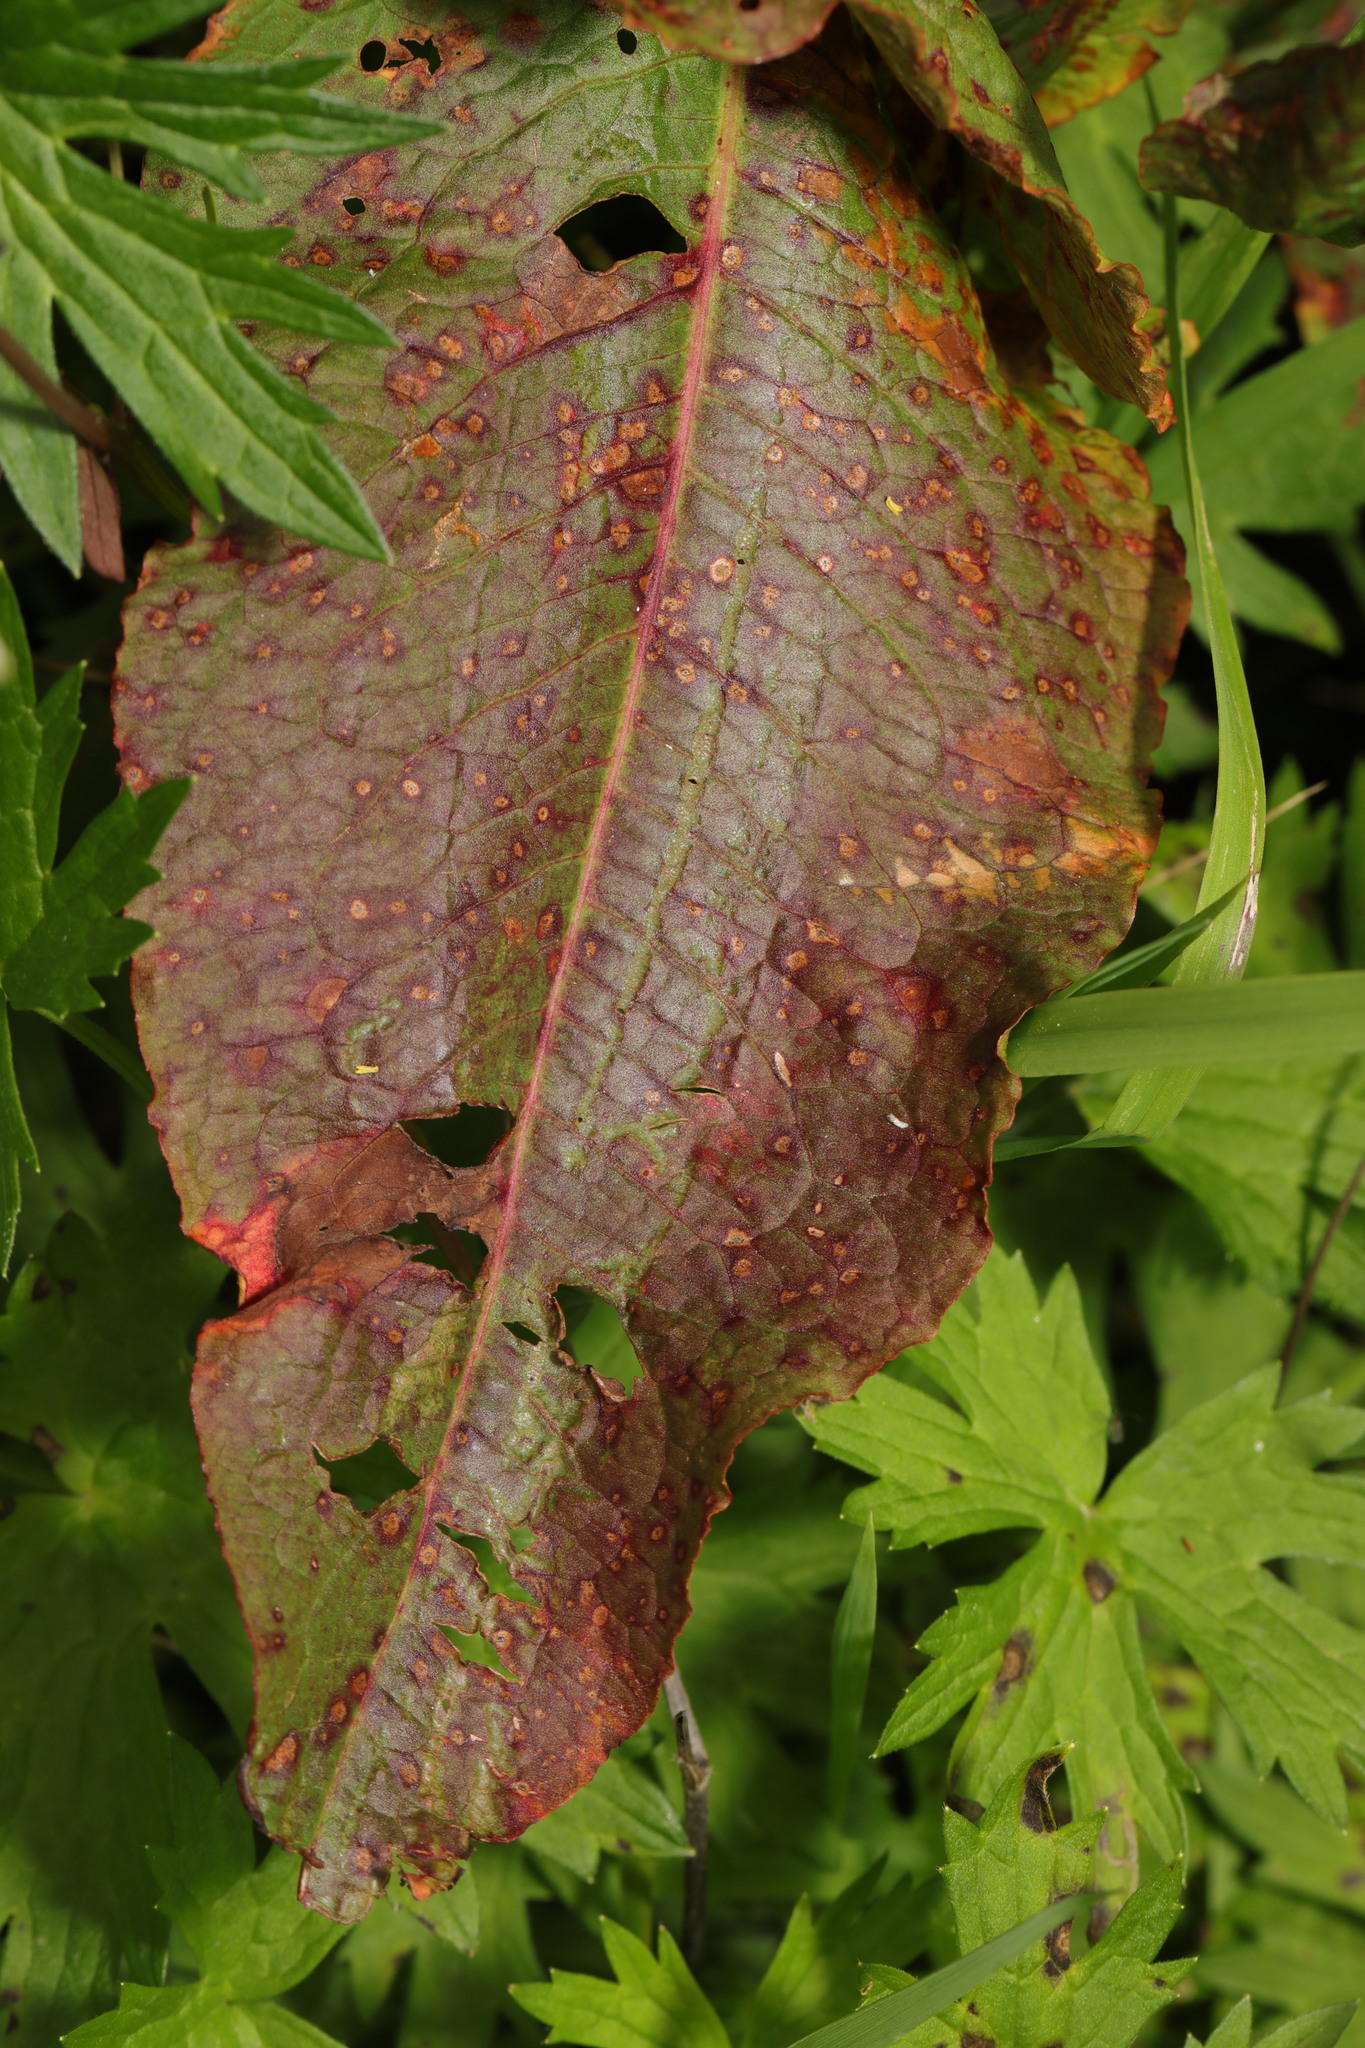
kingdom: Plantae
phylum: Tracheophyta
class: Magnoliopsida
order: Caryophyllales
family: Polygonaceae
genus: Rumex
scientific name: Rumex obtusifolius
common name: Bitter dock
